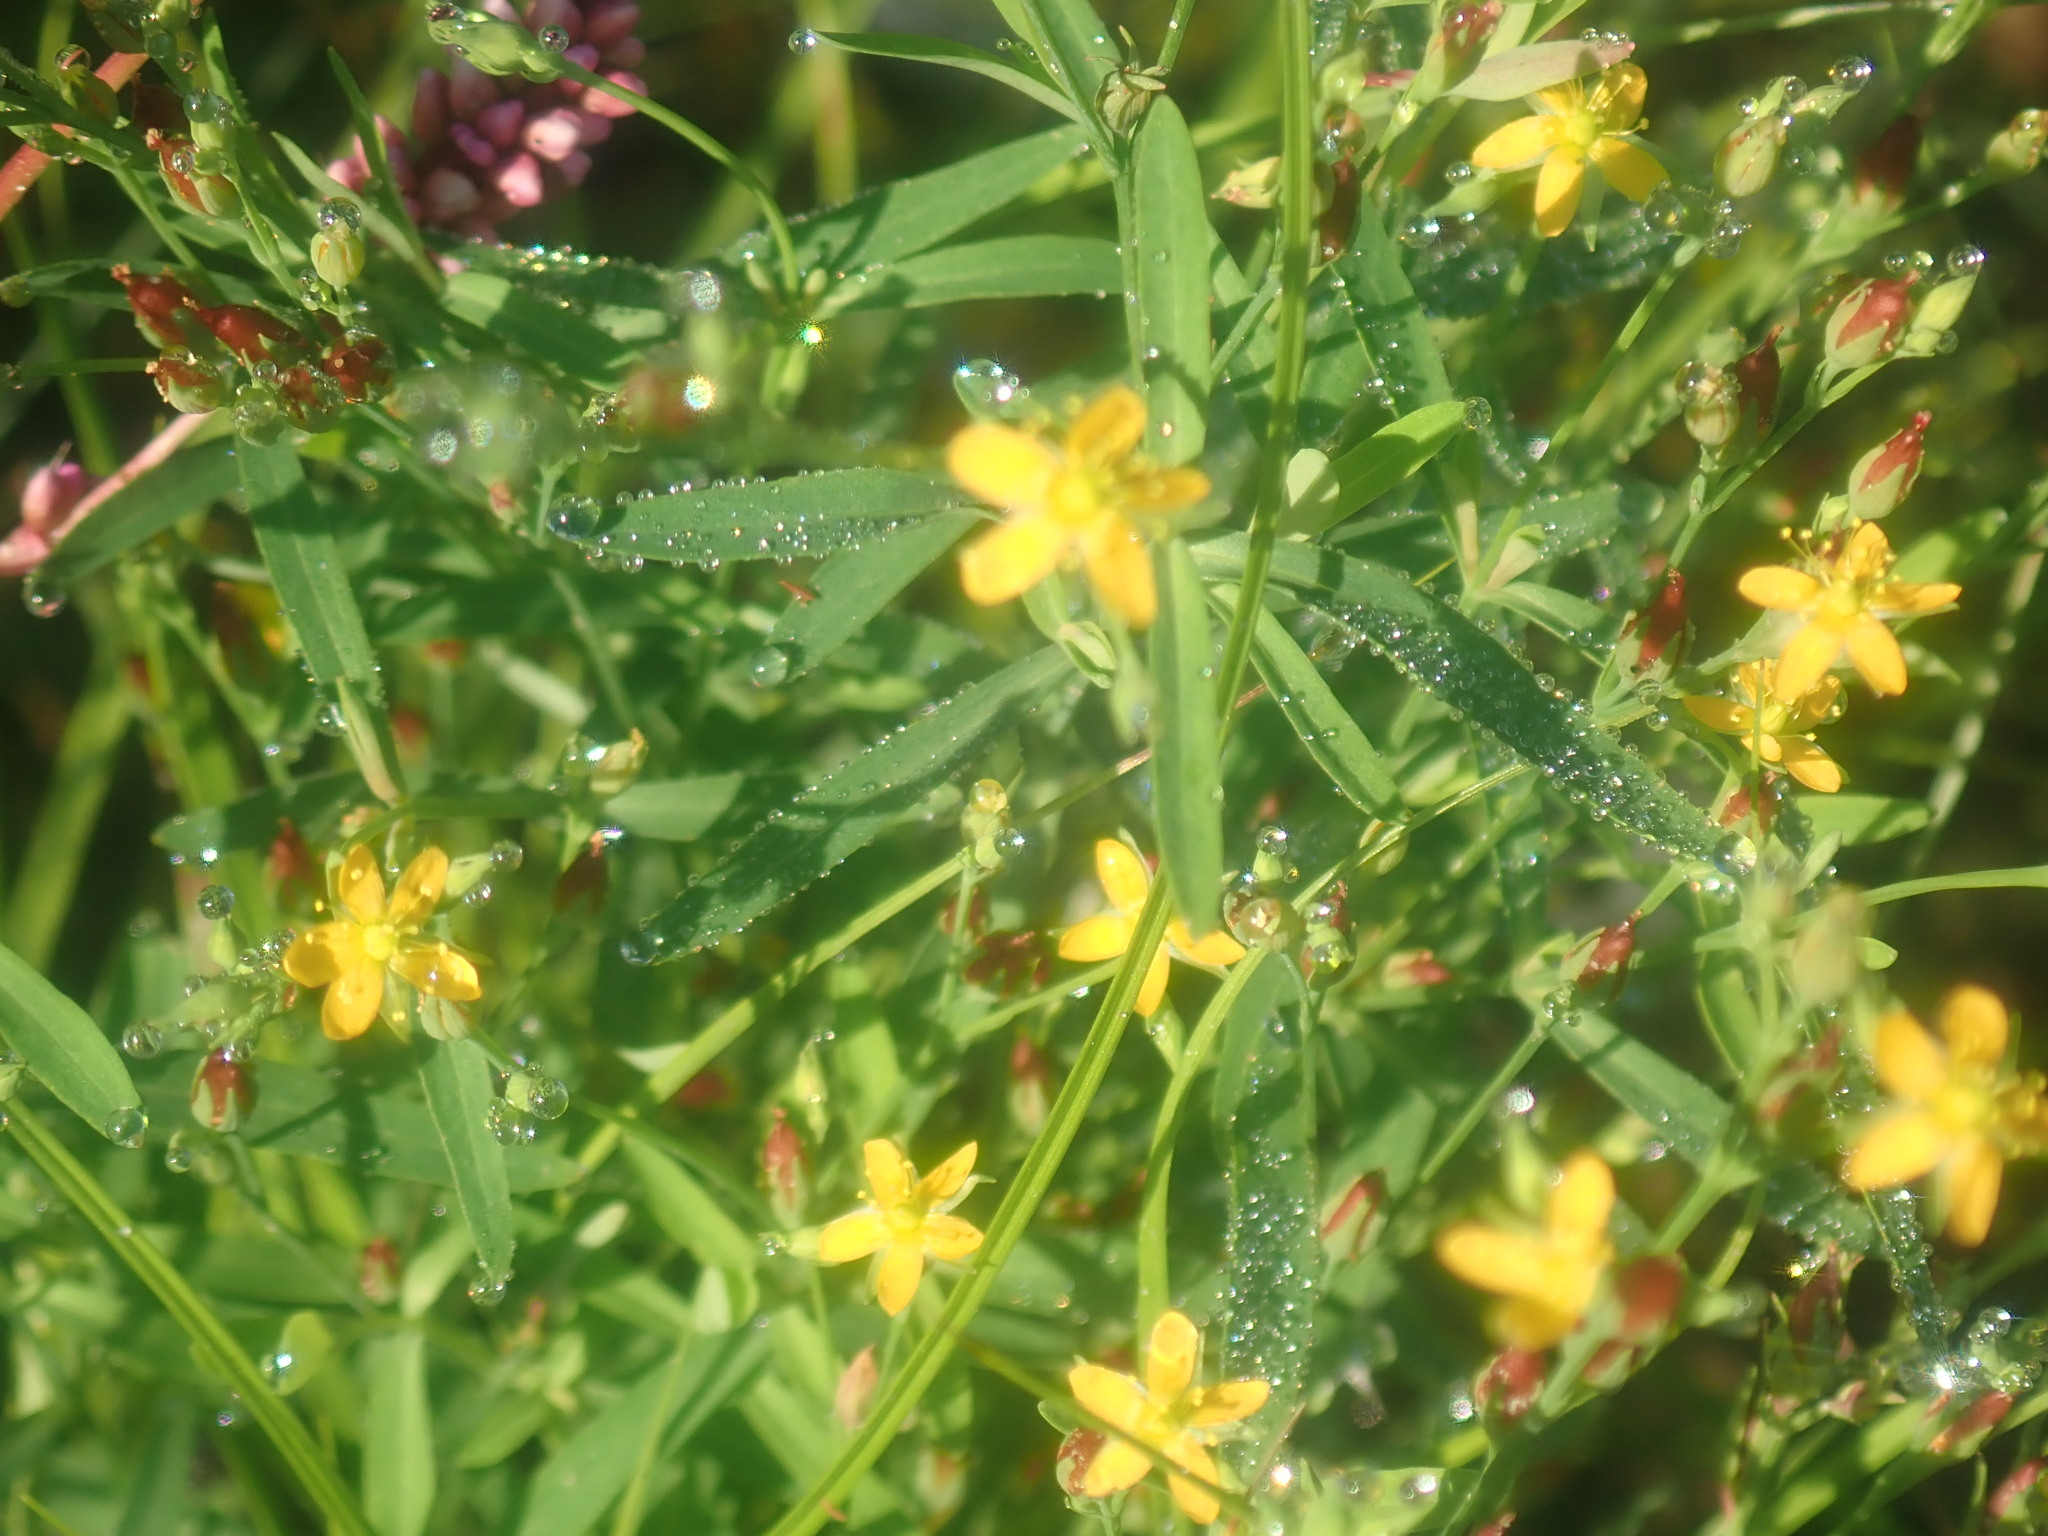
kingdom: Plantae
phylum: Tracheophyta
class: Magnoliopsida
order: Malpighiales
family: Hypericaceae
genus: Hypericum
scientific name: Hypericum canadense
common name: Irish st. john's-wort
